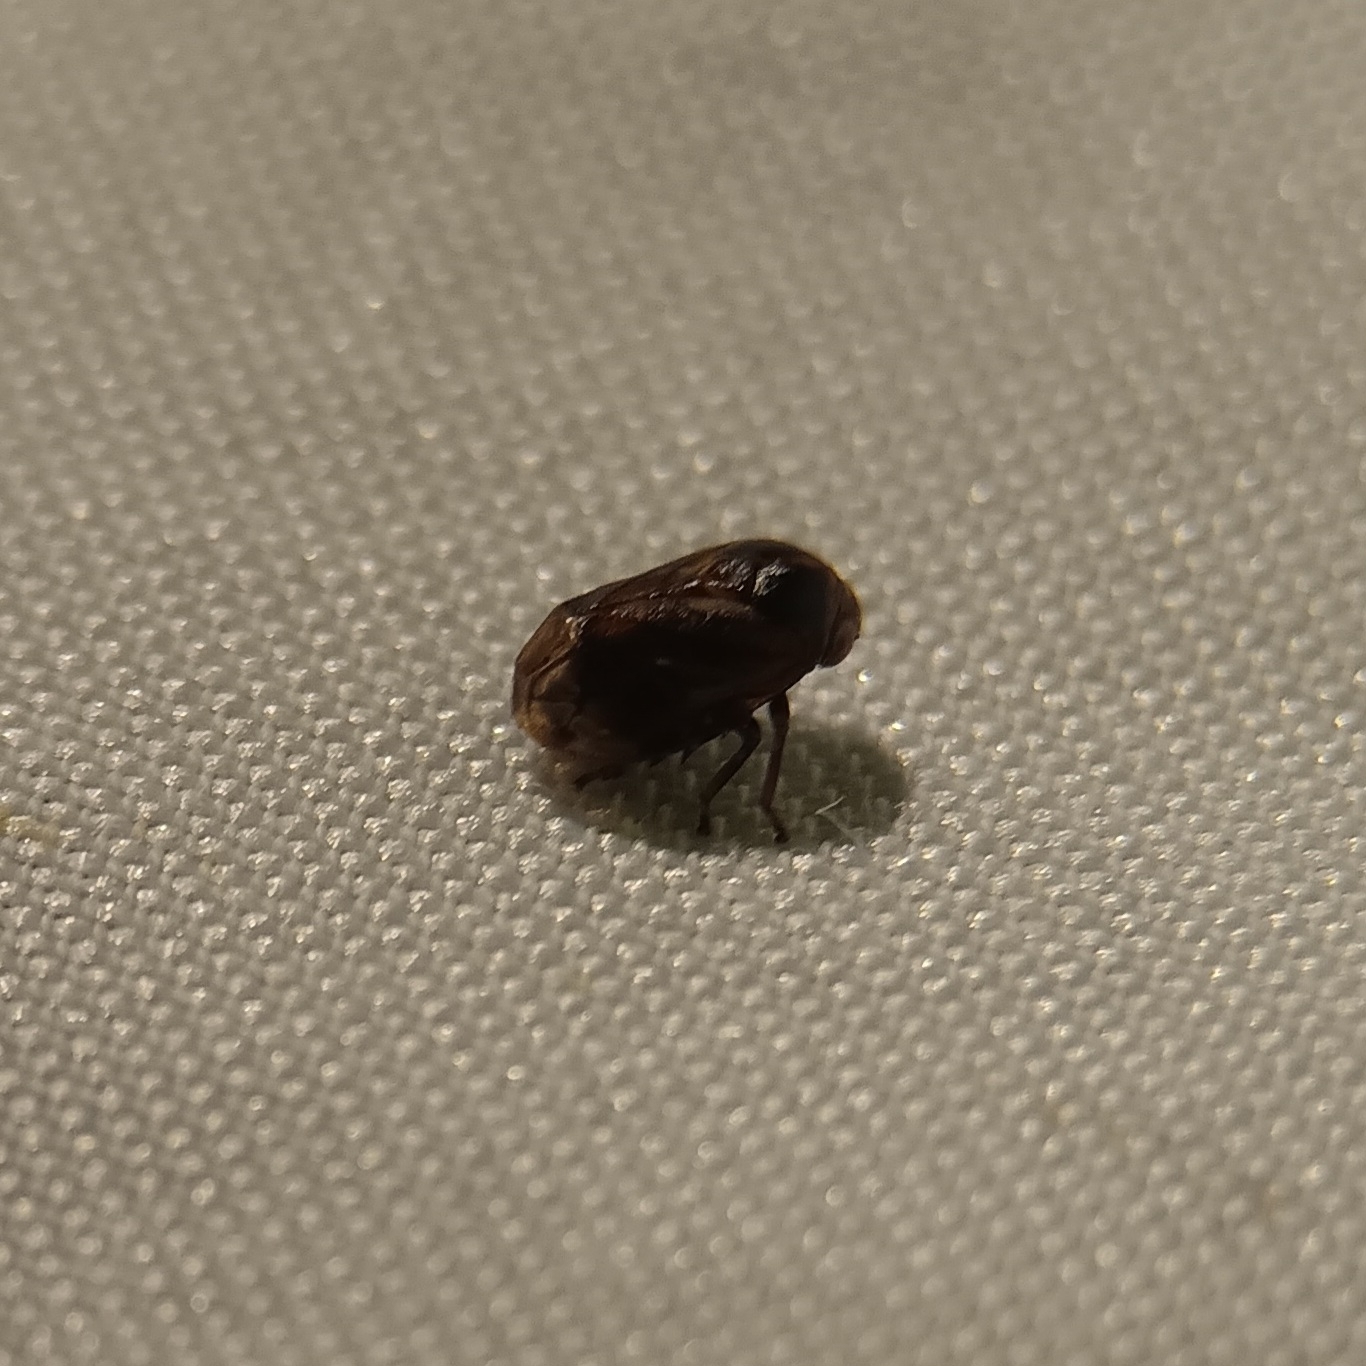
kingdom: Animalia
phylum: Arthropoda
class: Insecta
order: Hemiptera
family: Clastopteridae
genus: Clastoptera
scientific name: Clastoptera xanthocephala
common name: Sunflower spittlebug
